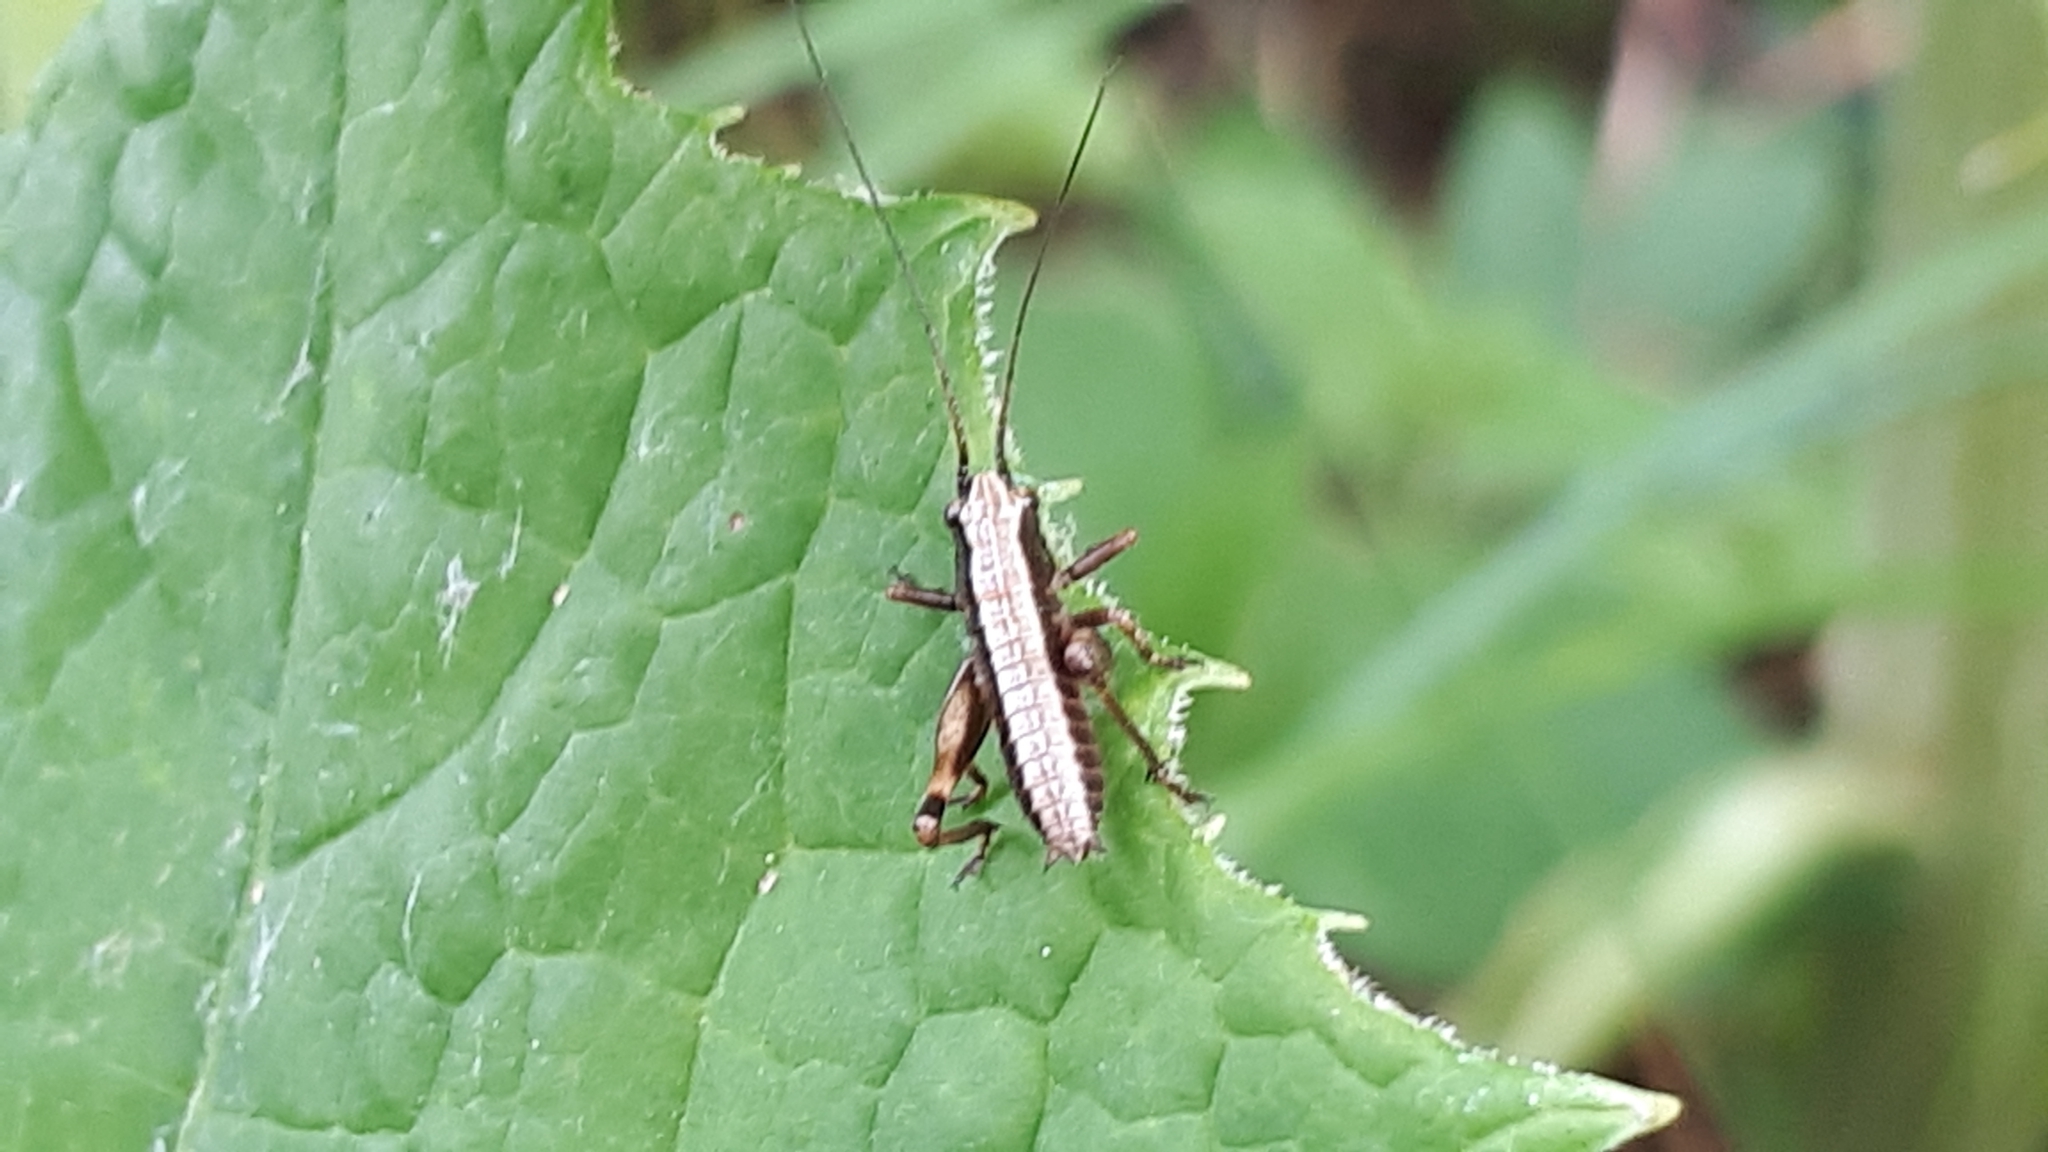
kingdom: Animalia
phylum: Arthropoda
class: Insecta
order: Orthoptera
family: Tettigoniidae
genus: Pholidoptera
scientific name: Pholidoptera griseoaptera
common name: Dark bush-cricket
